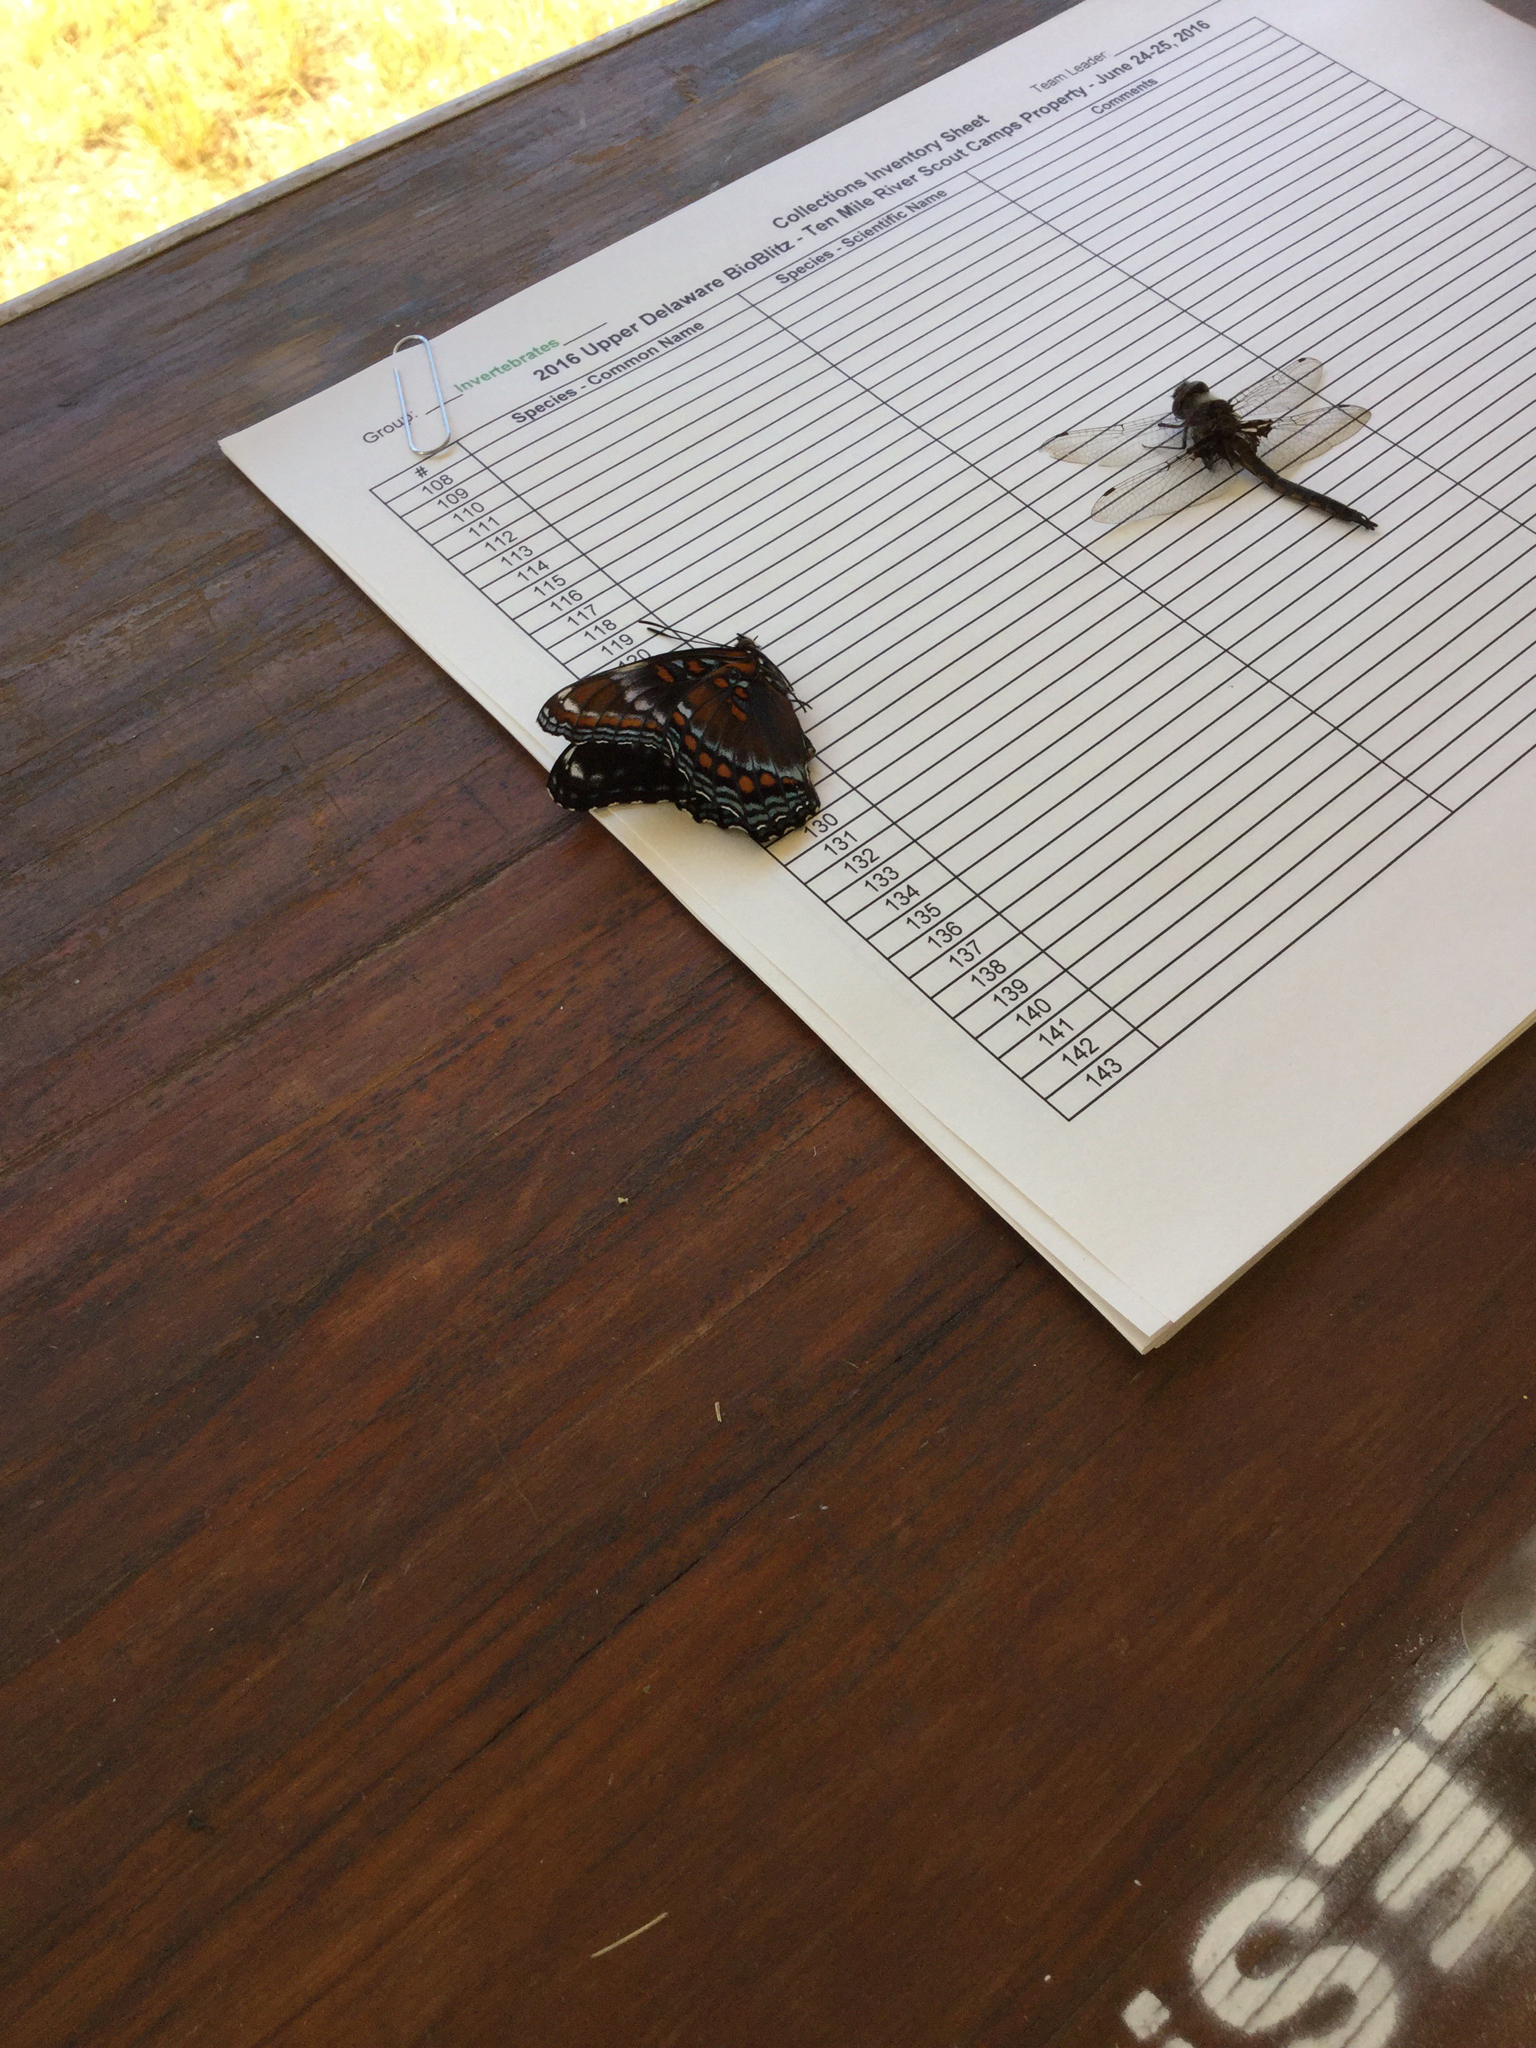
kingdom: Animalia
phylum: Arthropoda
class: Insecta
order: Lepidoptera
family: Nymphalidae
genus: Limenitis
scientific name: Limenitis
